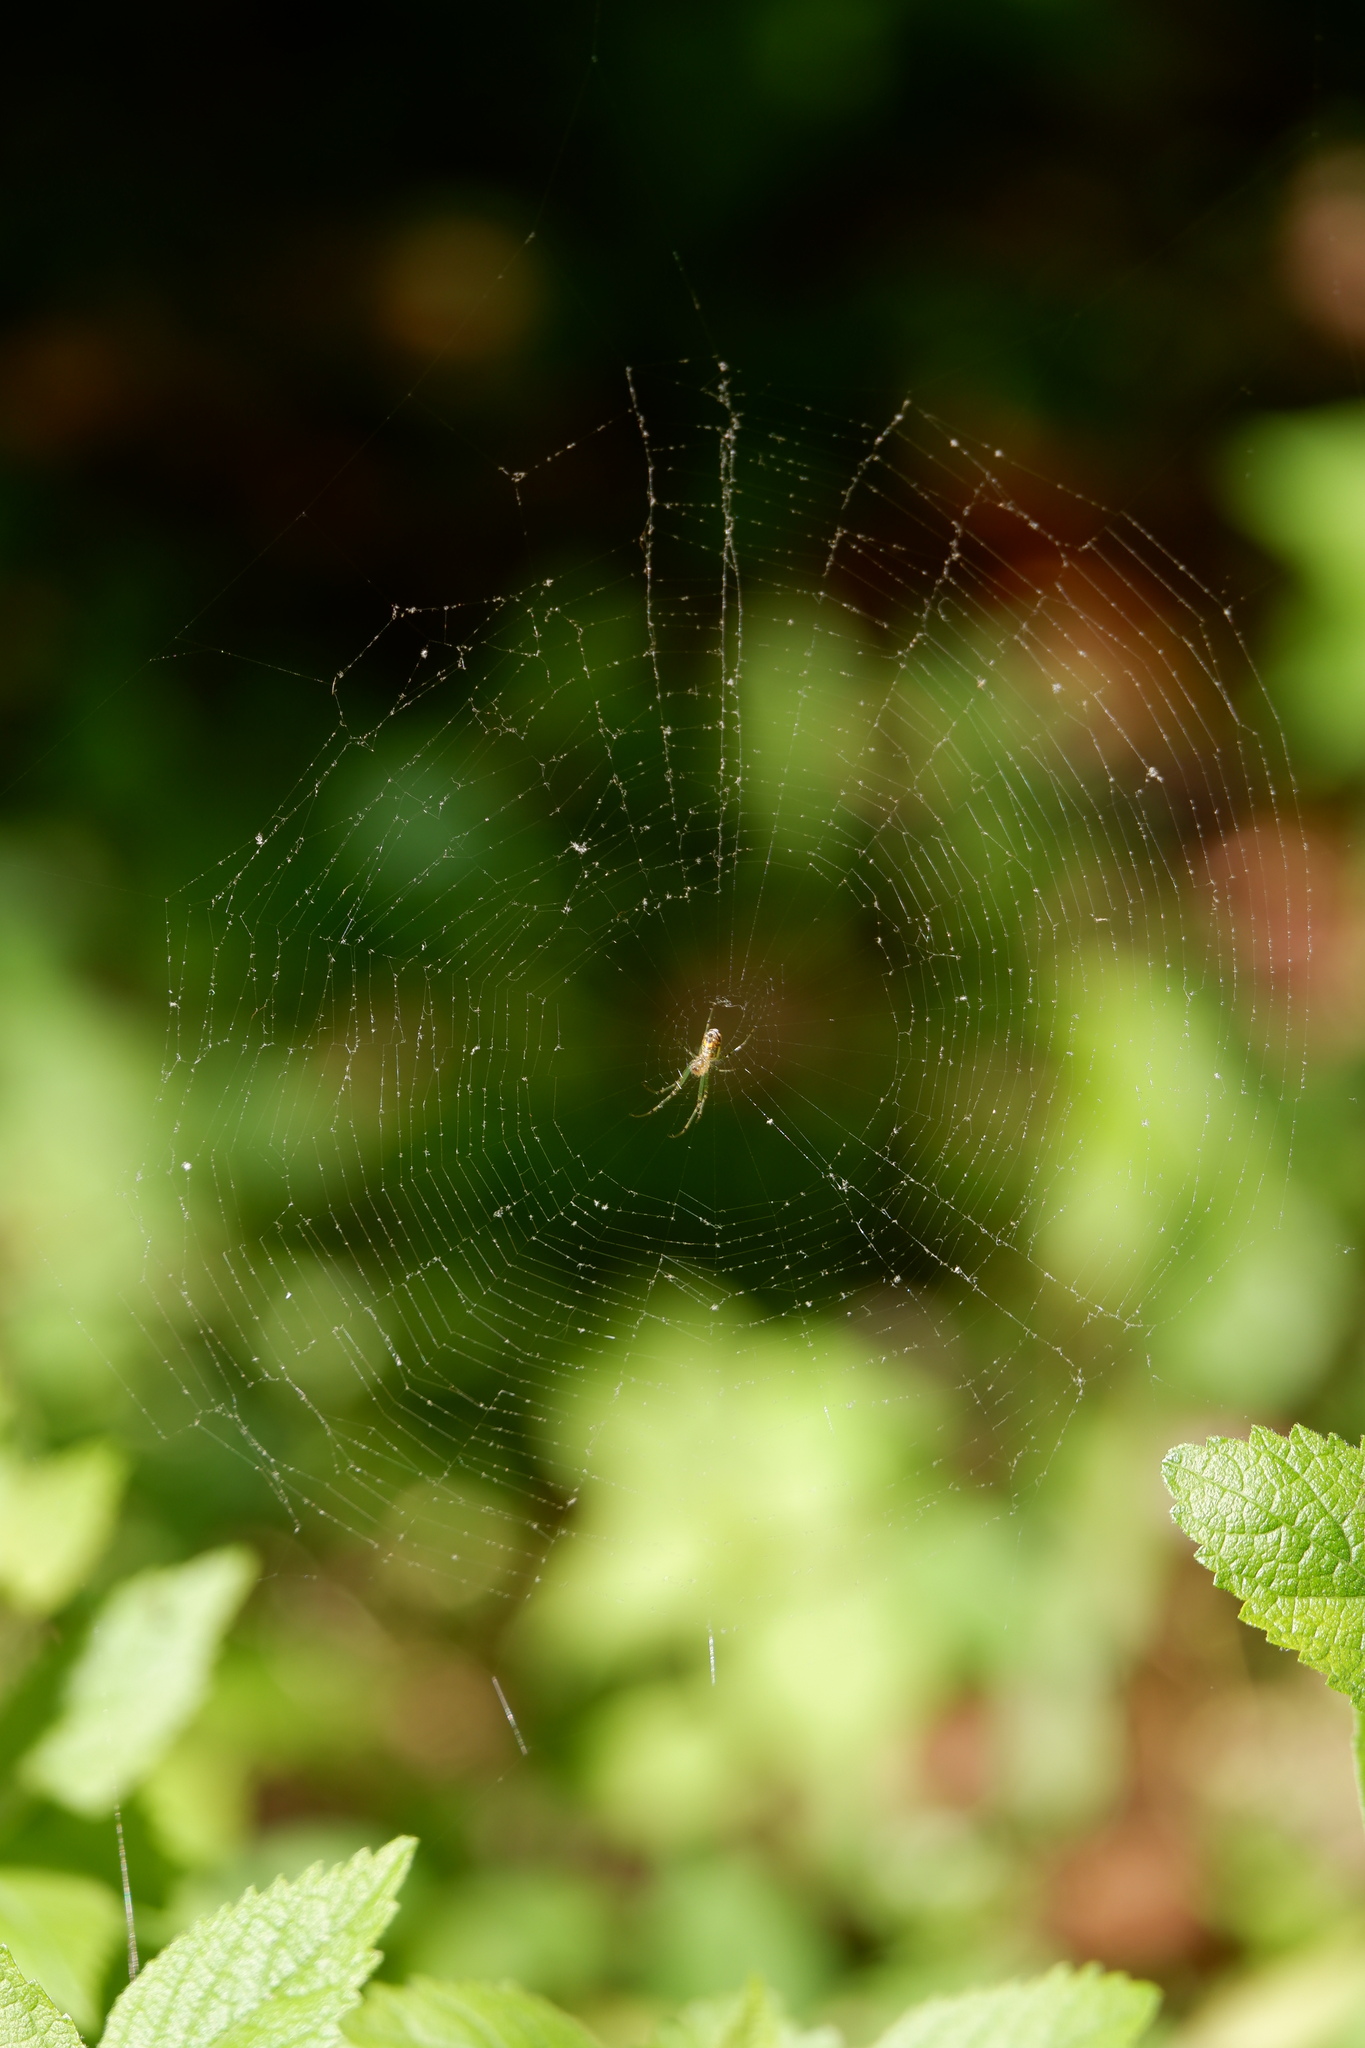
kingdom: Animalia
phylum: Arthropoda
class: Arachnida
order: Araneae
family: Tetragnathidae
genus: Leucauge
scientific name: Leucauge venusta
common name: Longjawed orb weavers
